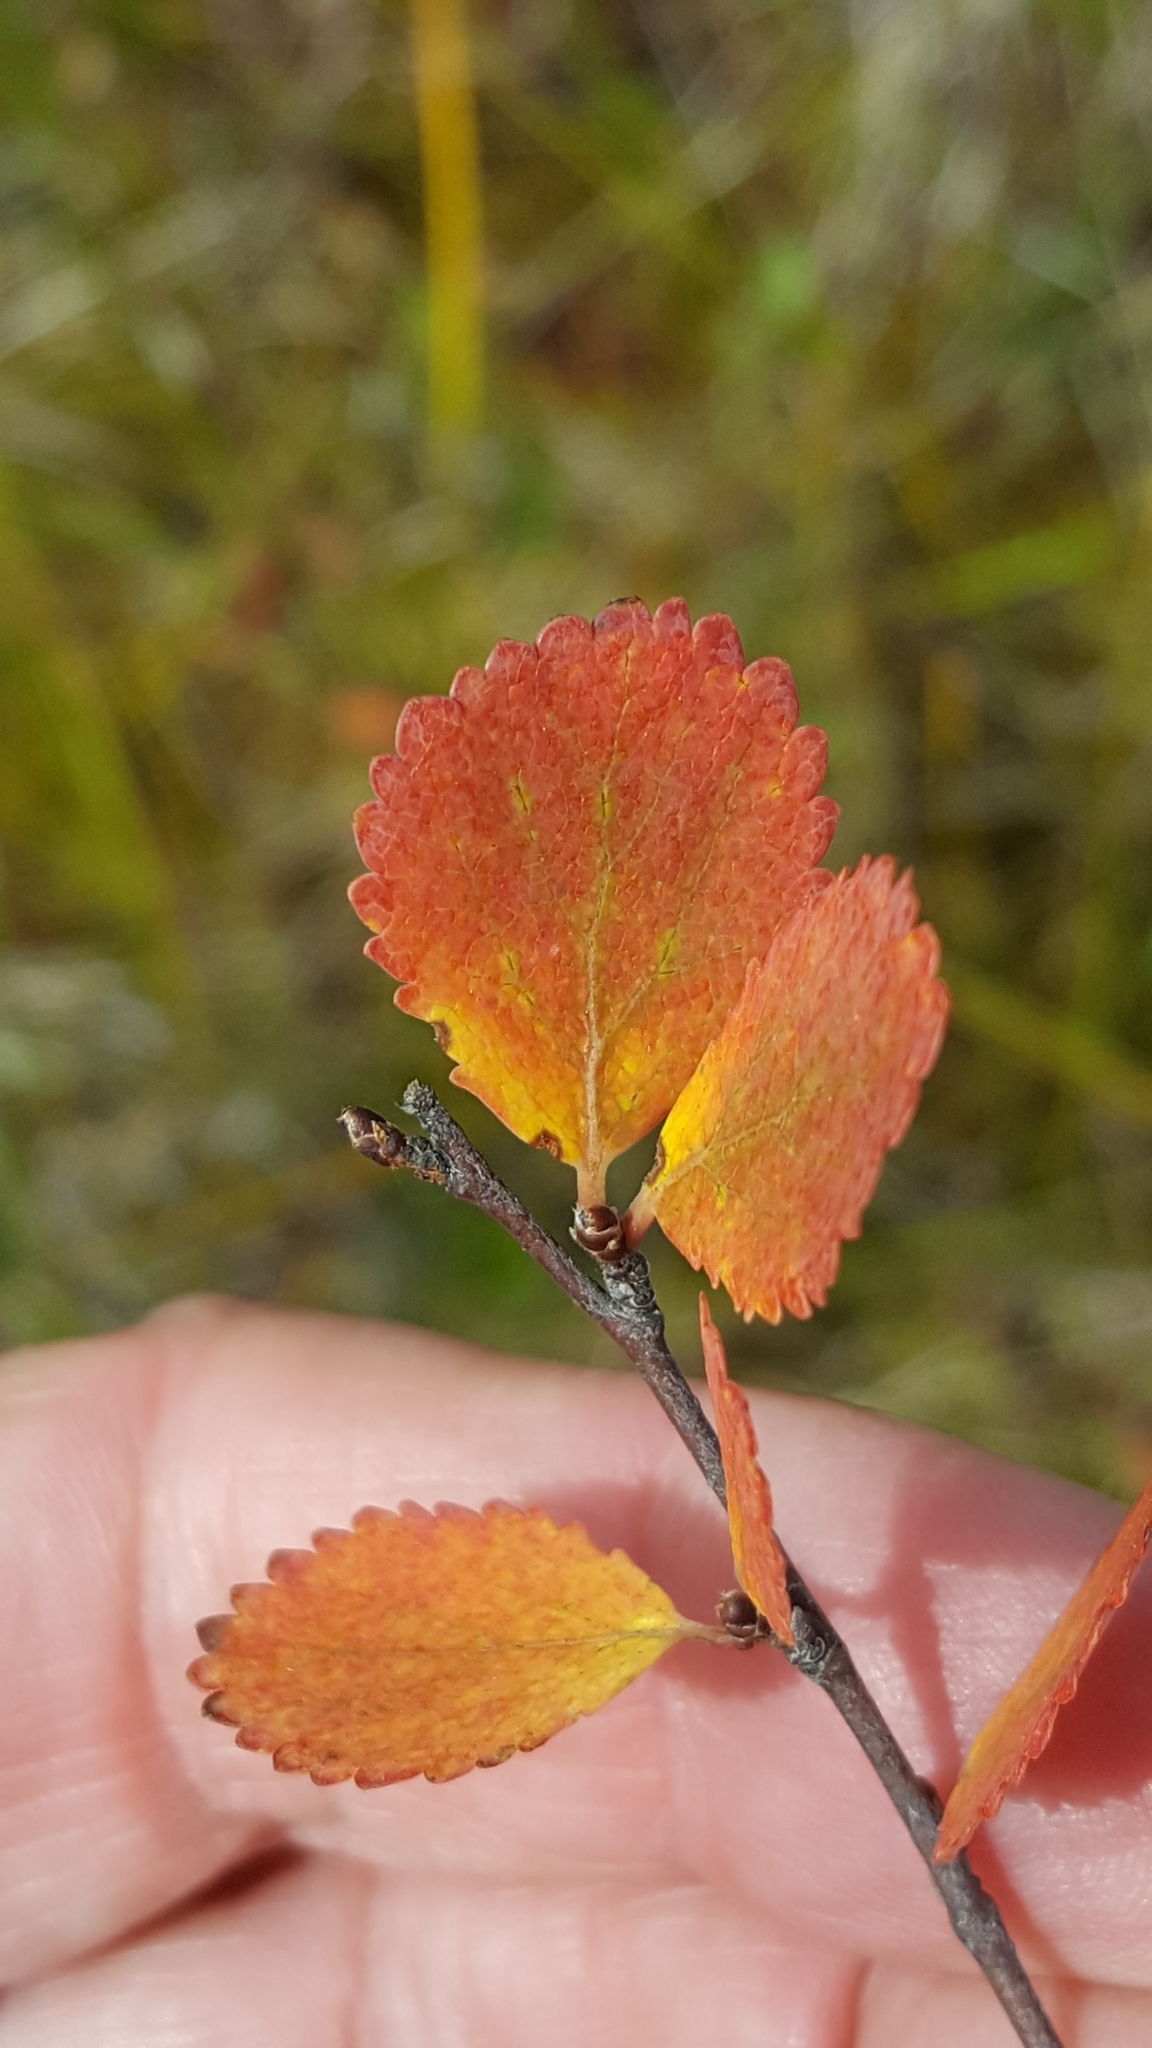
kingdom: Plantae
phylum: Tracheophyta
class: Magnoliopsida
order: Fagales
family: Betulaceae
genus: Betula
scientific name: Betula pumila
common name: Bog birch
